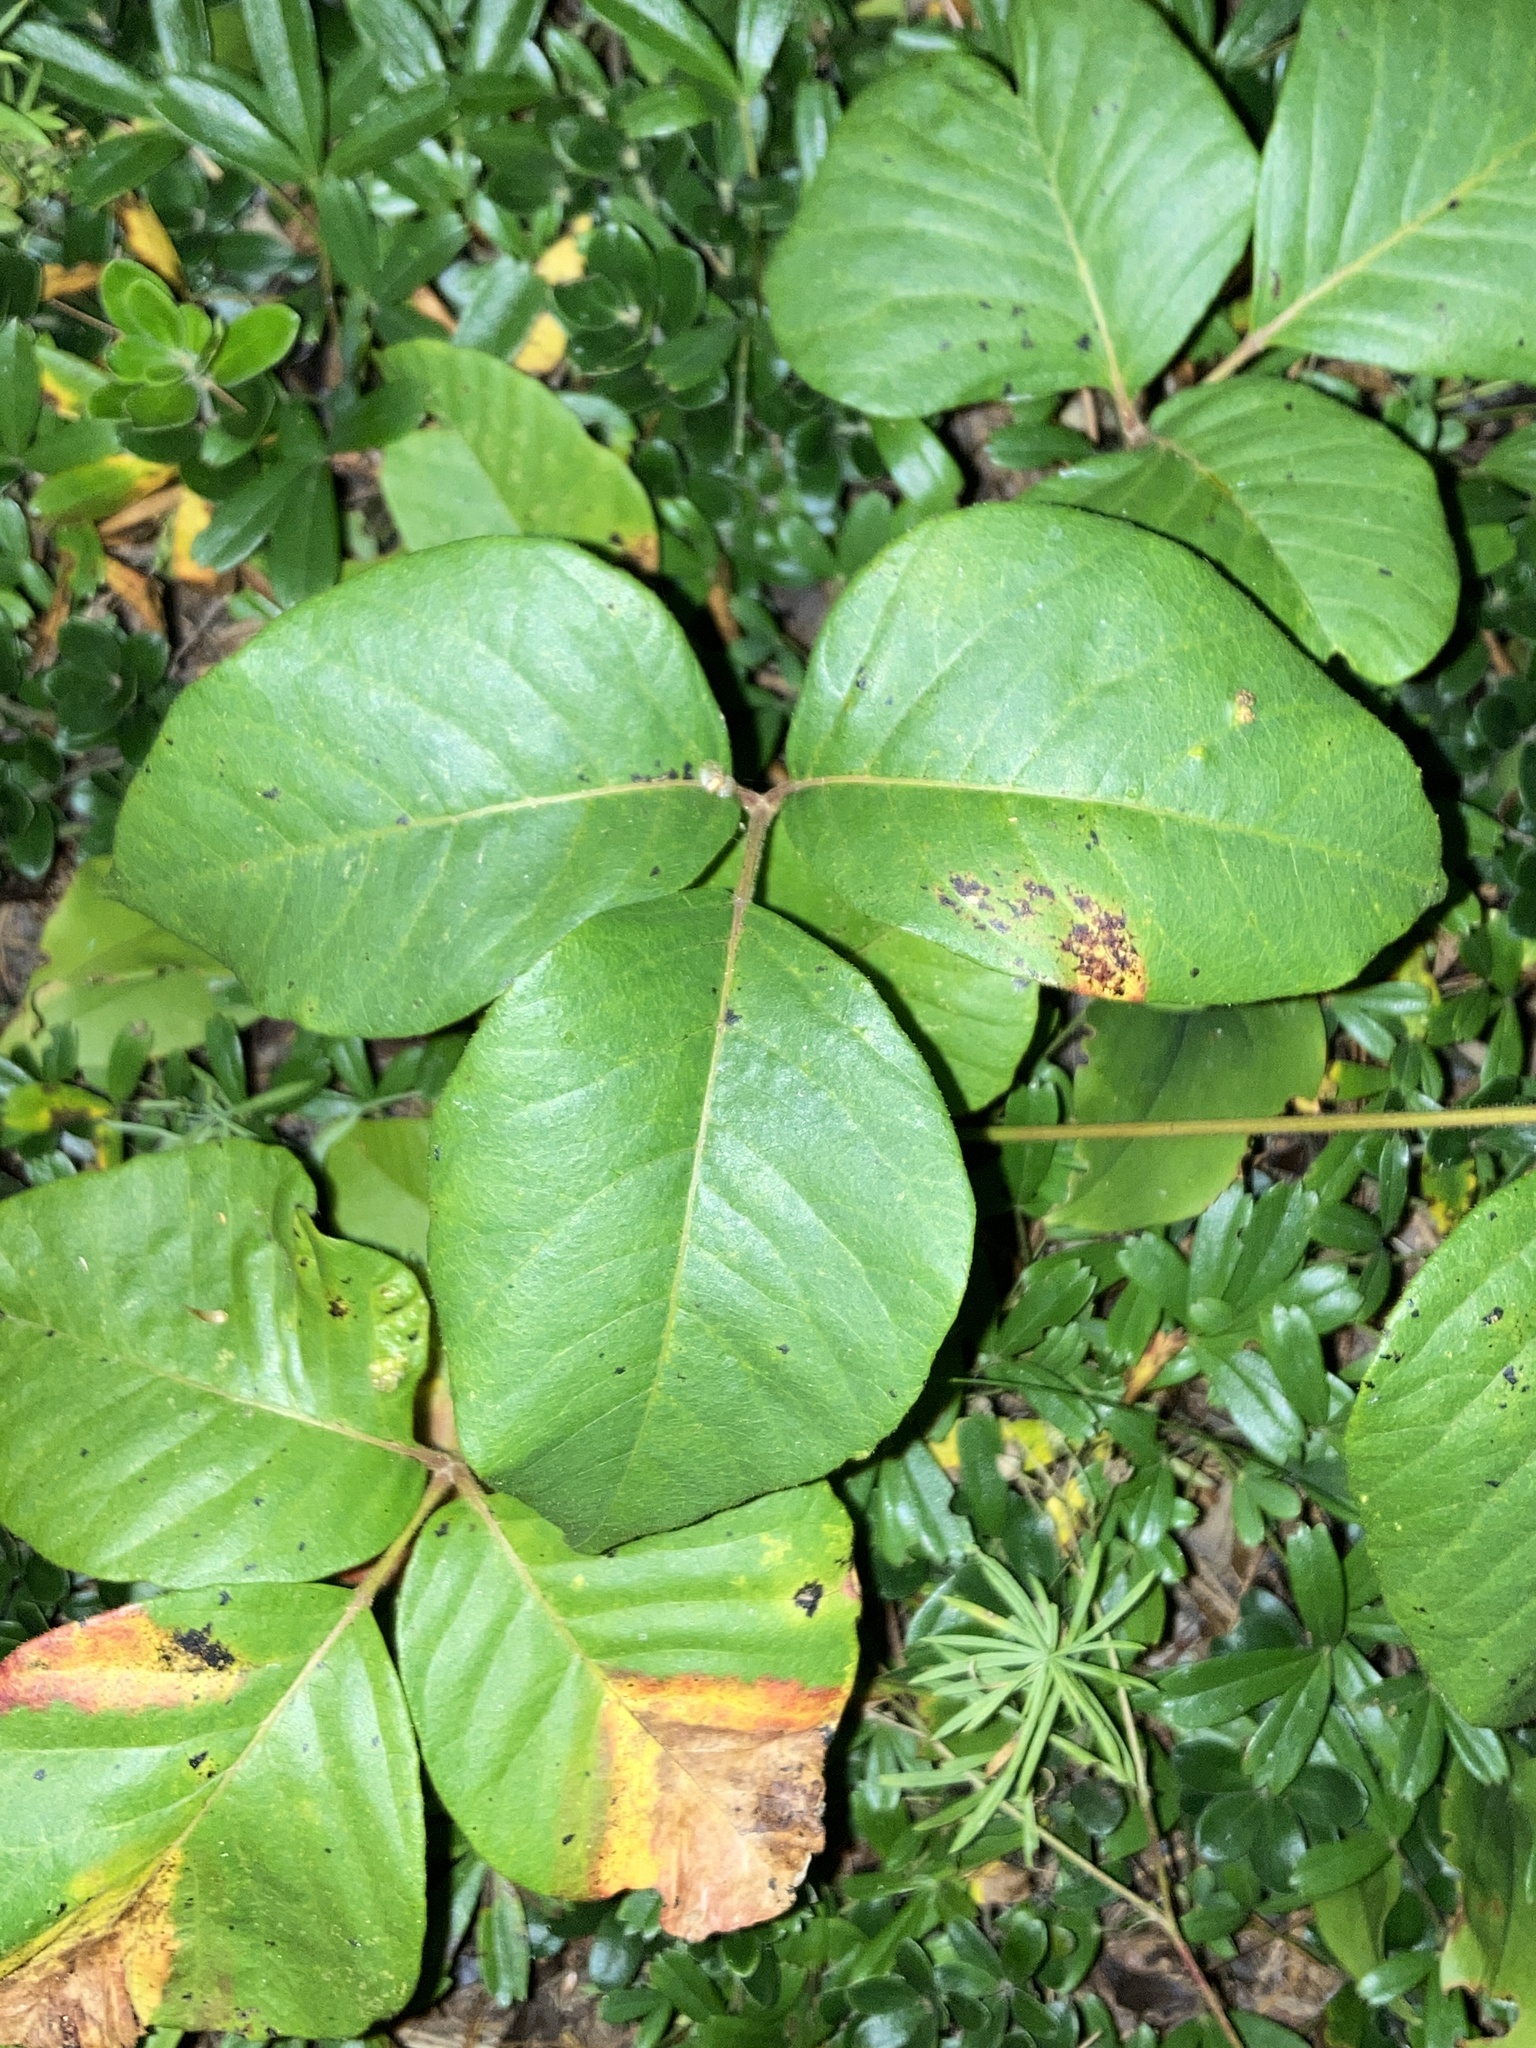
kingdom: Plantae
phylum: Tracheophyta
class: Magnoliopsida
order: Sapindales
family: Anacardiaceae
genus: Toxicodendron
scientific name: Toxicodendron rydbergii
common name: Rydberg's poison-ivy
